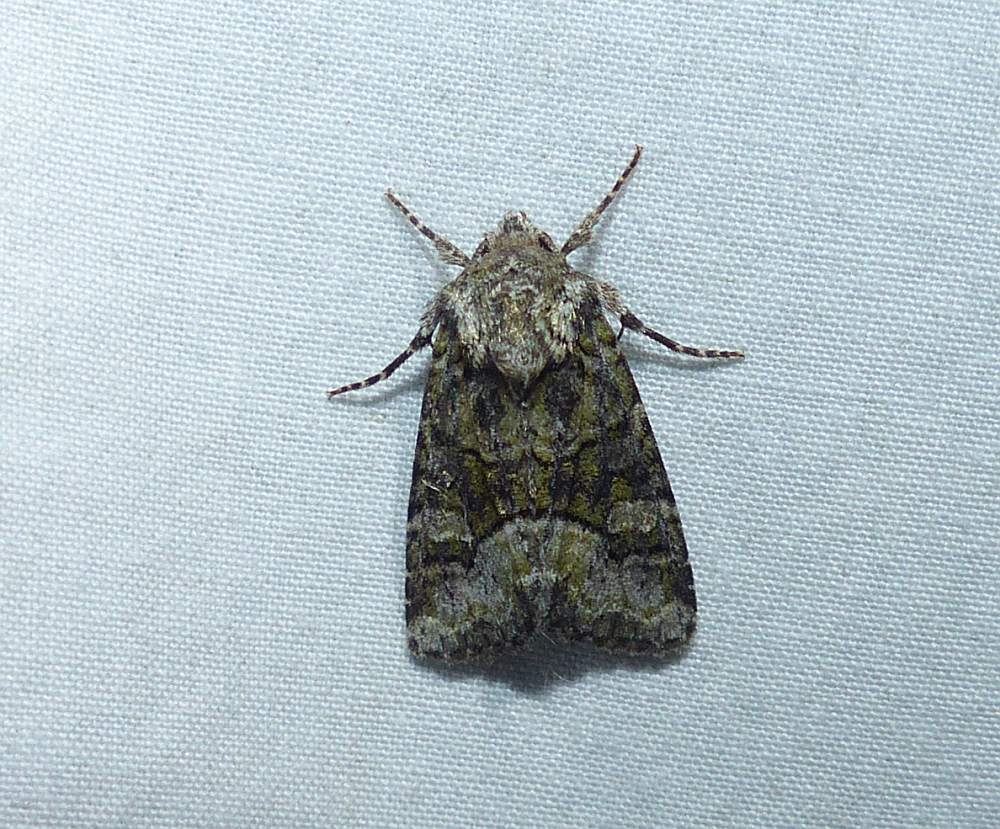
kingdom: Animalia
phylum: Arthropoda
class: Insecta
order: Lepidoptera
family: Noctuidae
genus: Lacinipolia
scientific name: Lacinipolia olivacea
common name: Olive arches moth
